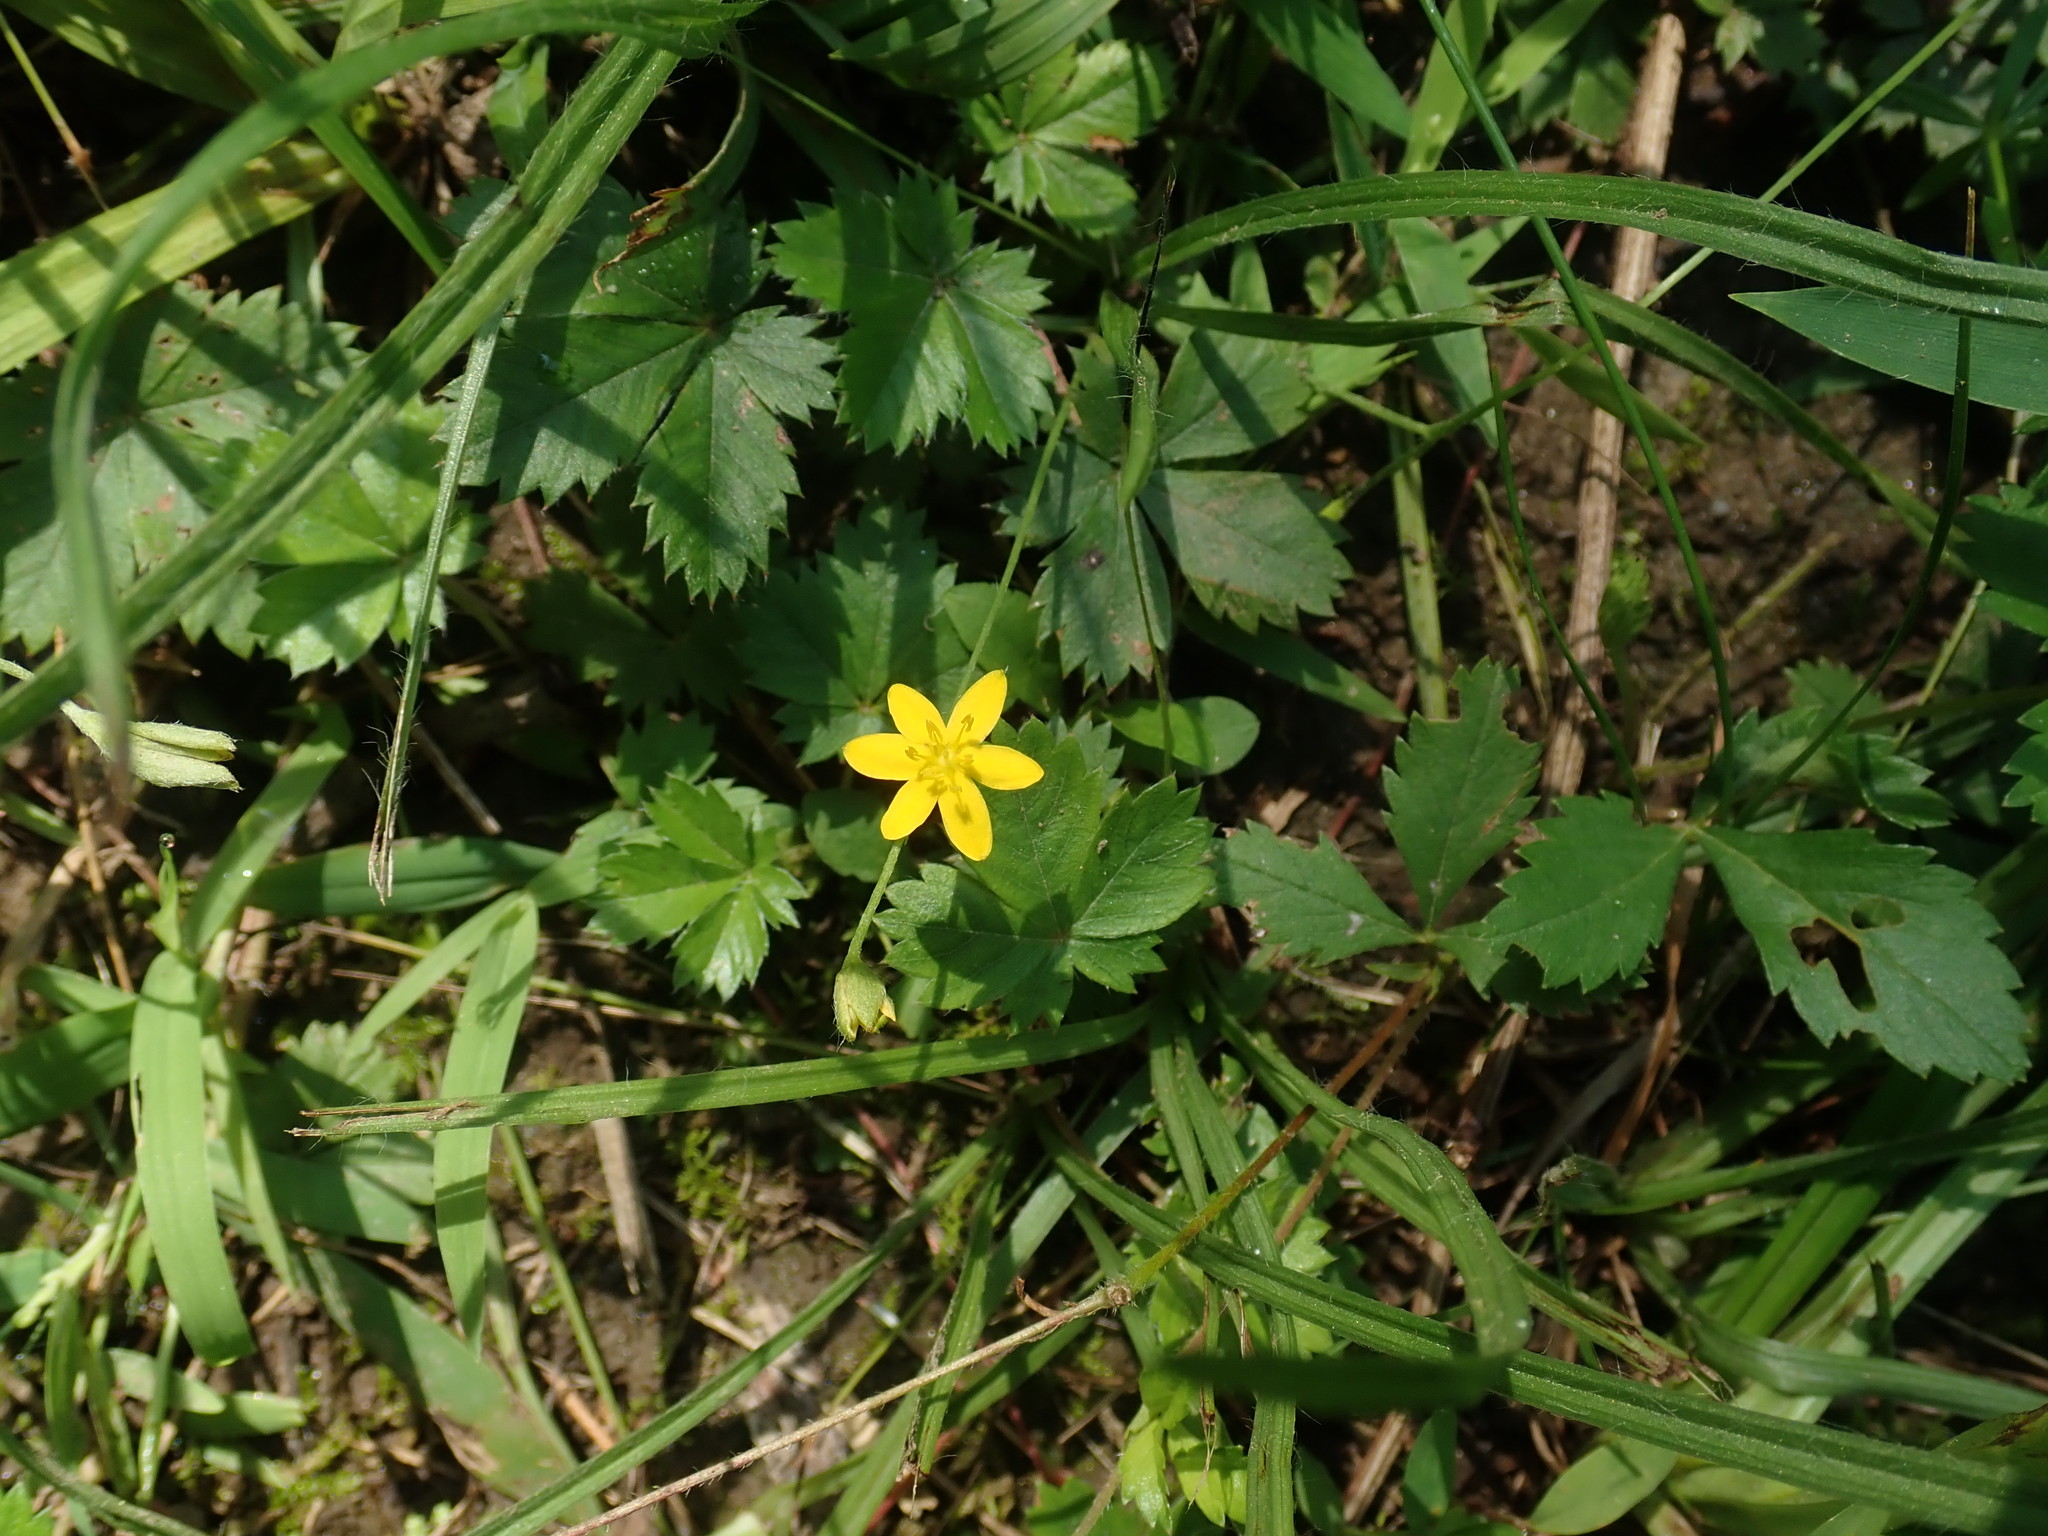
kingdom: Plantae
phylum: Tracheophyta
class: Liliopsida
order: Asparagales
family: Hypoxidaceae
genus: Hypoxis
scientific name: Hypoxis hirsuta
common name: Common goldstar
